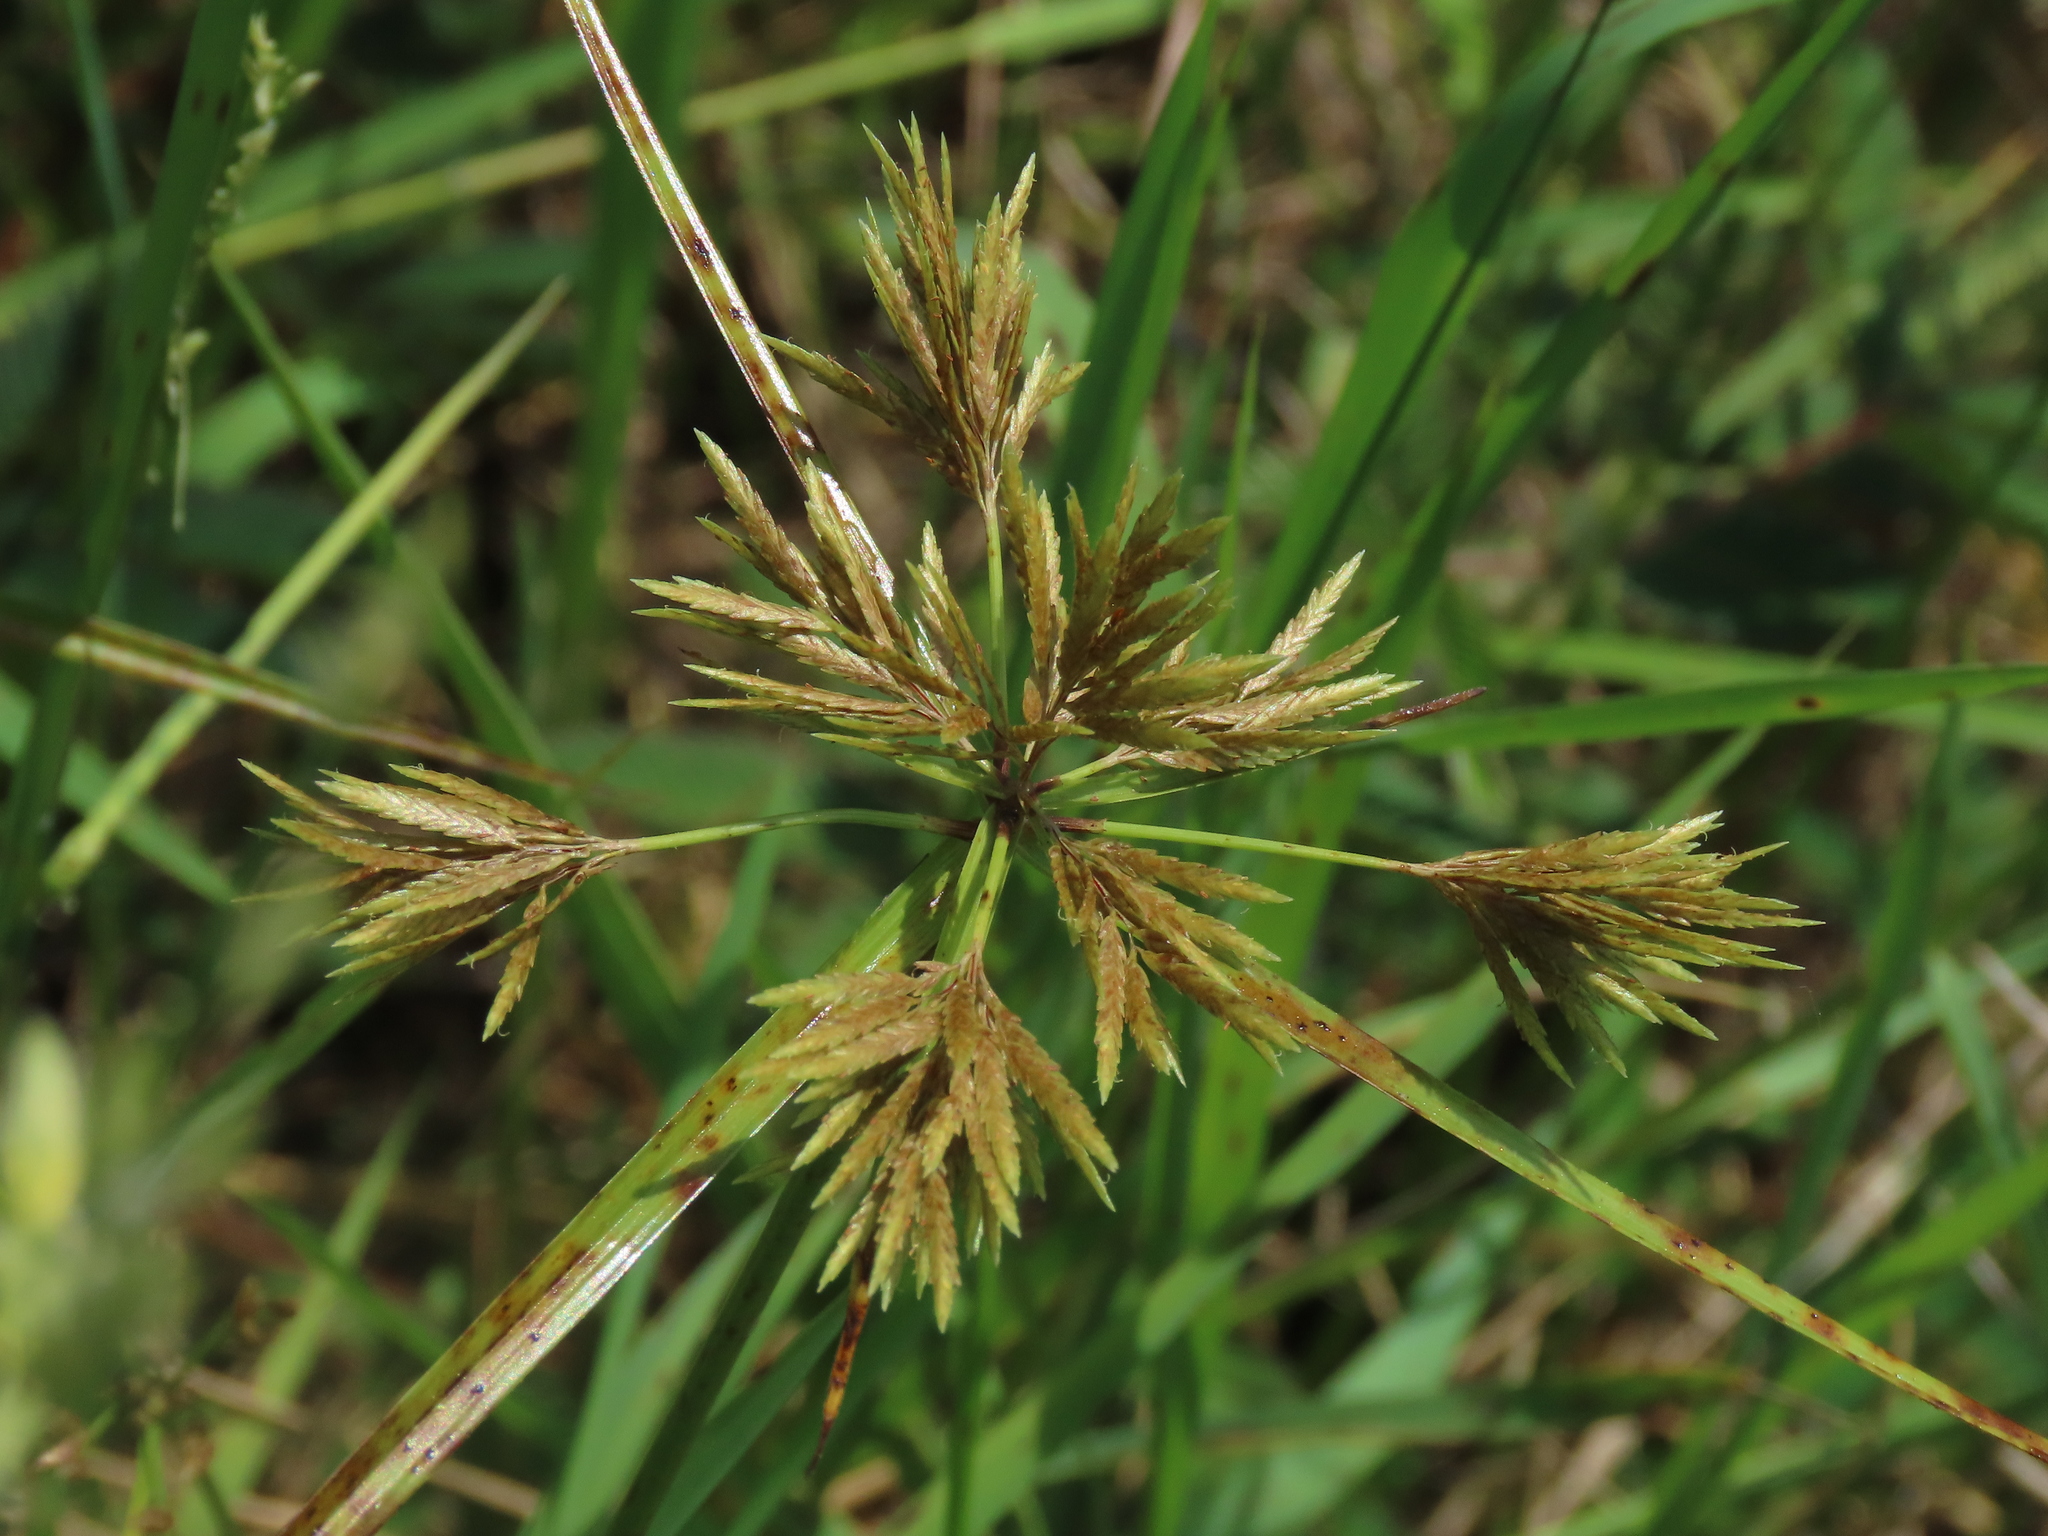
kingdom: Plantae
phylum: Tracheophyta
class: Liliopsida
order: Poales
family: Cyperaceae
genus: Cyperus
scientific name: Cyperus polystachyos
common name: Bunchy flat sedge
